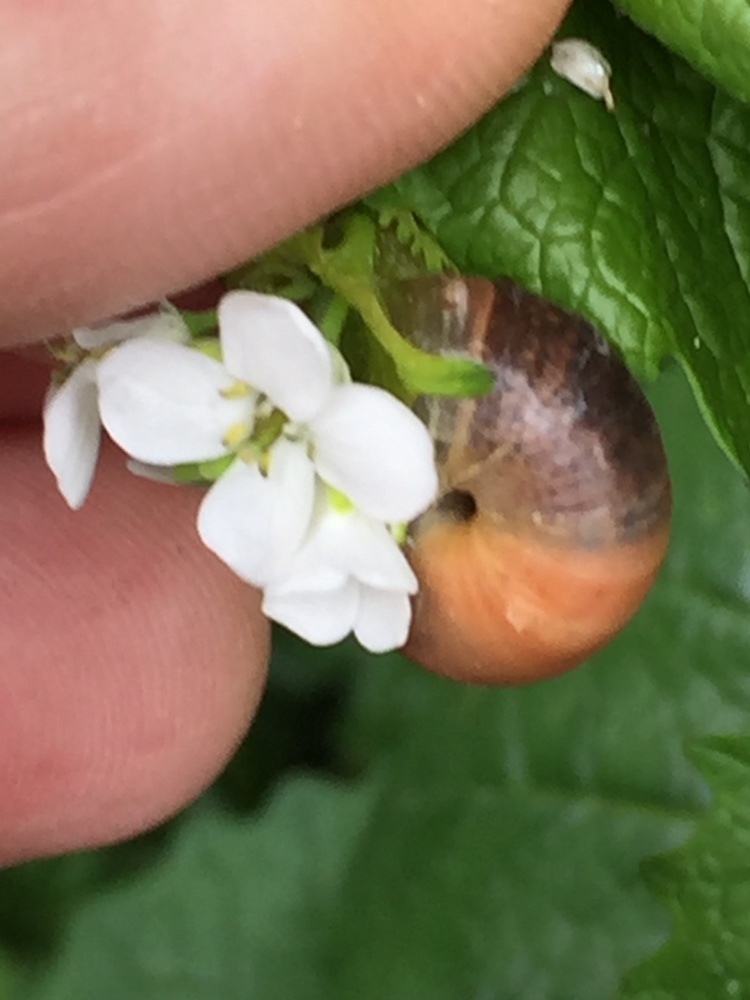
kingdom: Animalia
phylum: Mollusca
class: Gastropoda
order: Stylommatophora
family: Hygromiidae
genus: Monacha
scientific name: Monacha cantiana
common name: Kentish snail
